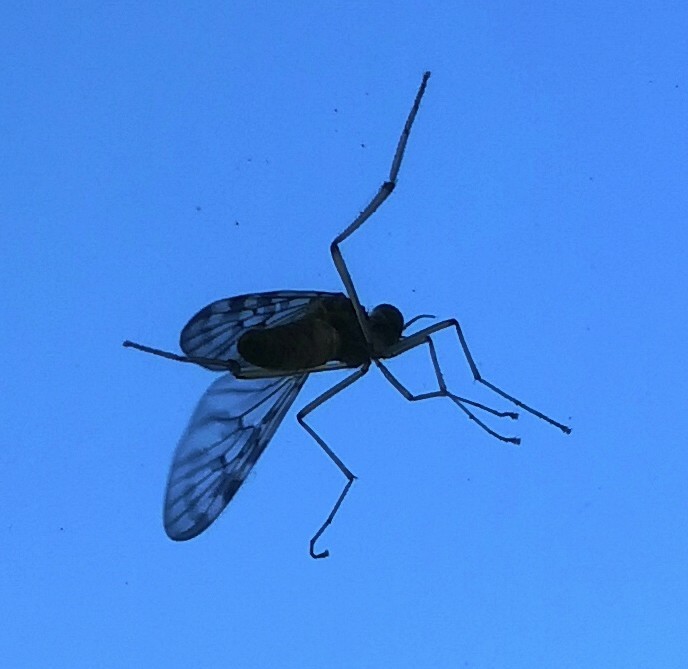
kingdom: Animalia
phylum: Arthropoda
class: Insecta
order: Diptera
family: Anisopodidae
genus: Sylvicola
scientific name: Sylvicola dubius
